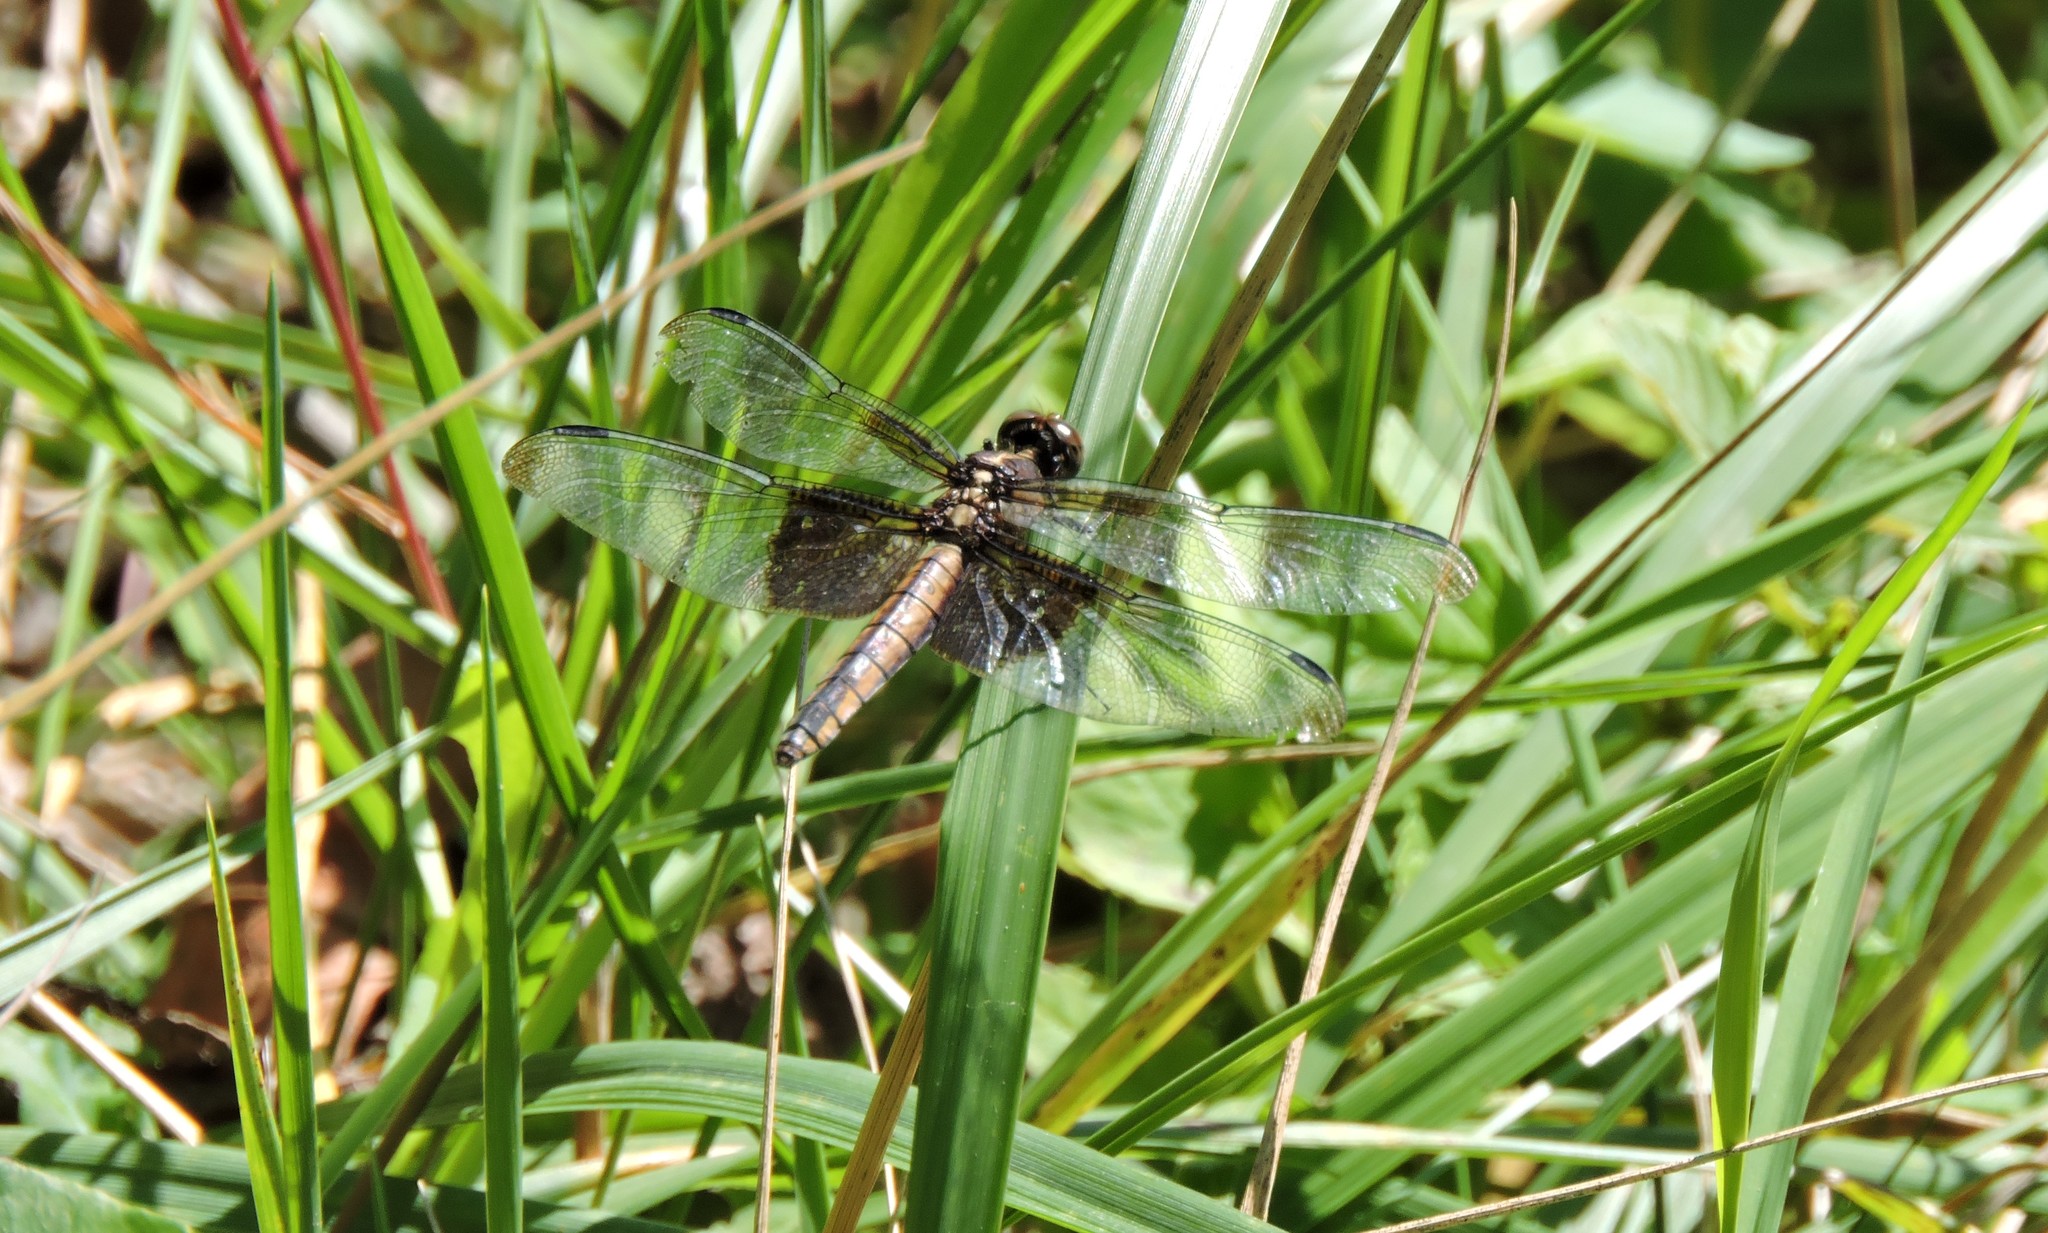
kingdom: Animalia
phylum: Arthropoda
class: Insecta
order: Odonata
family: Libellulidae
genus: Libellula
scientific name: Libellula luctuosa
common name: Widow skimmer
